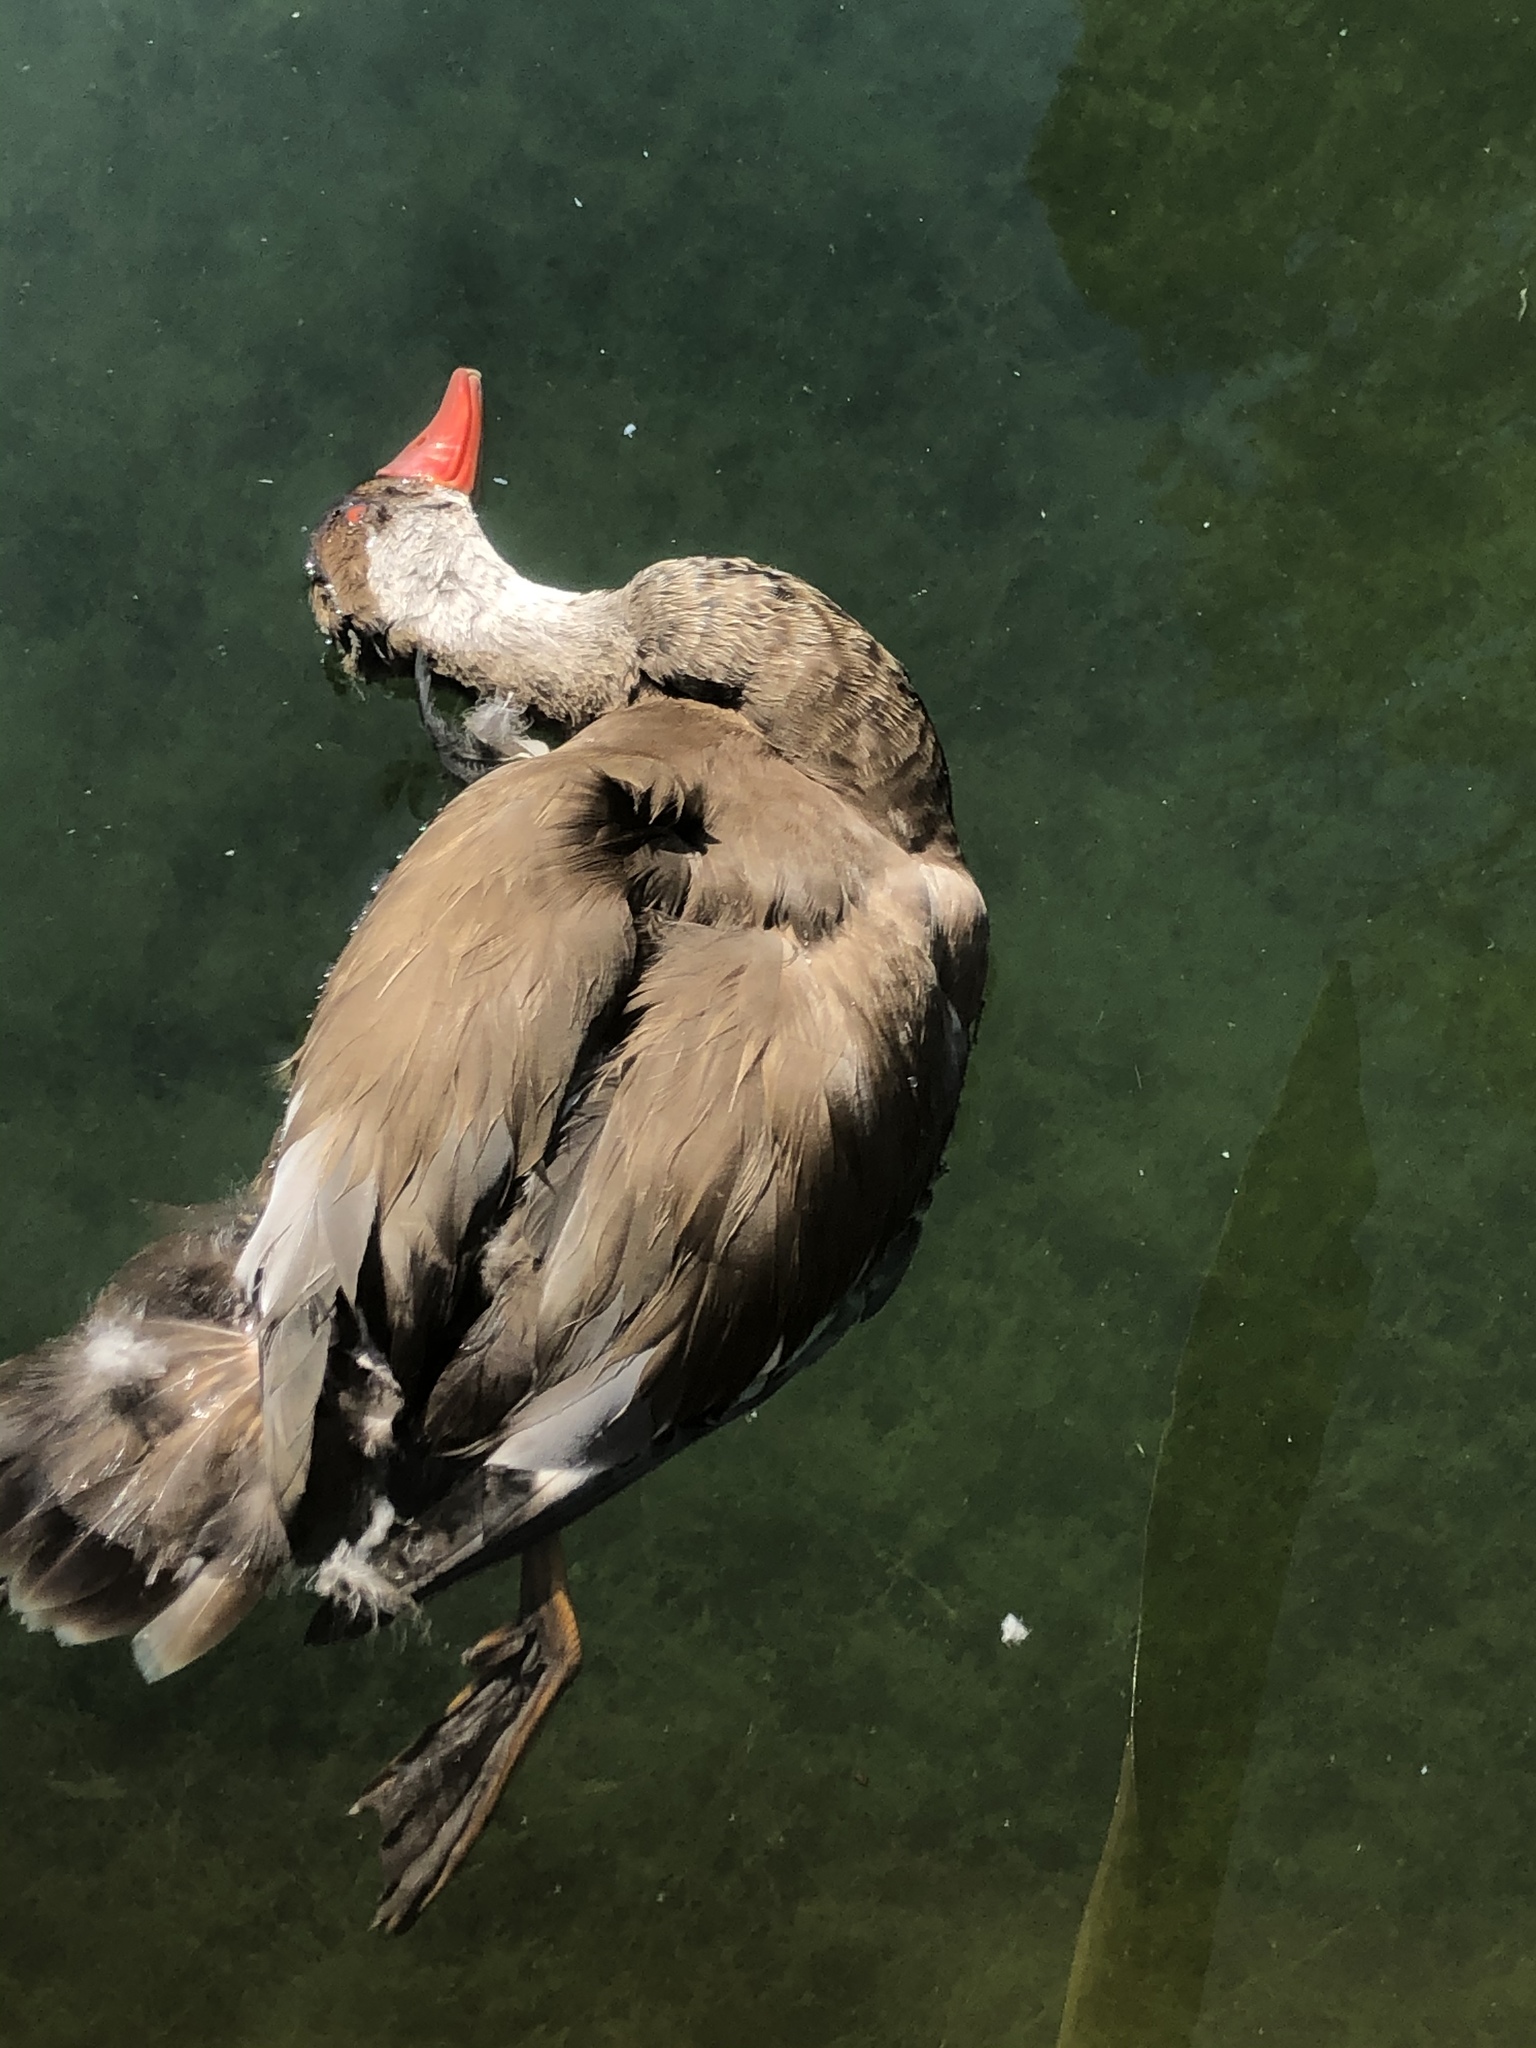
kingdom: Animalia
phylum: Chordata
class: Aves
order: Anseriformes
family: Anatidae
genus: Netta
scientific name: Netta rufina
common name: Red-crested pochard
